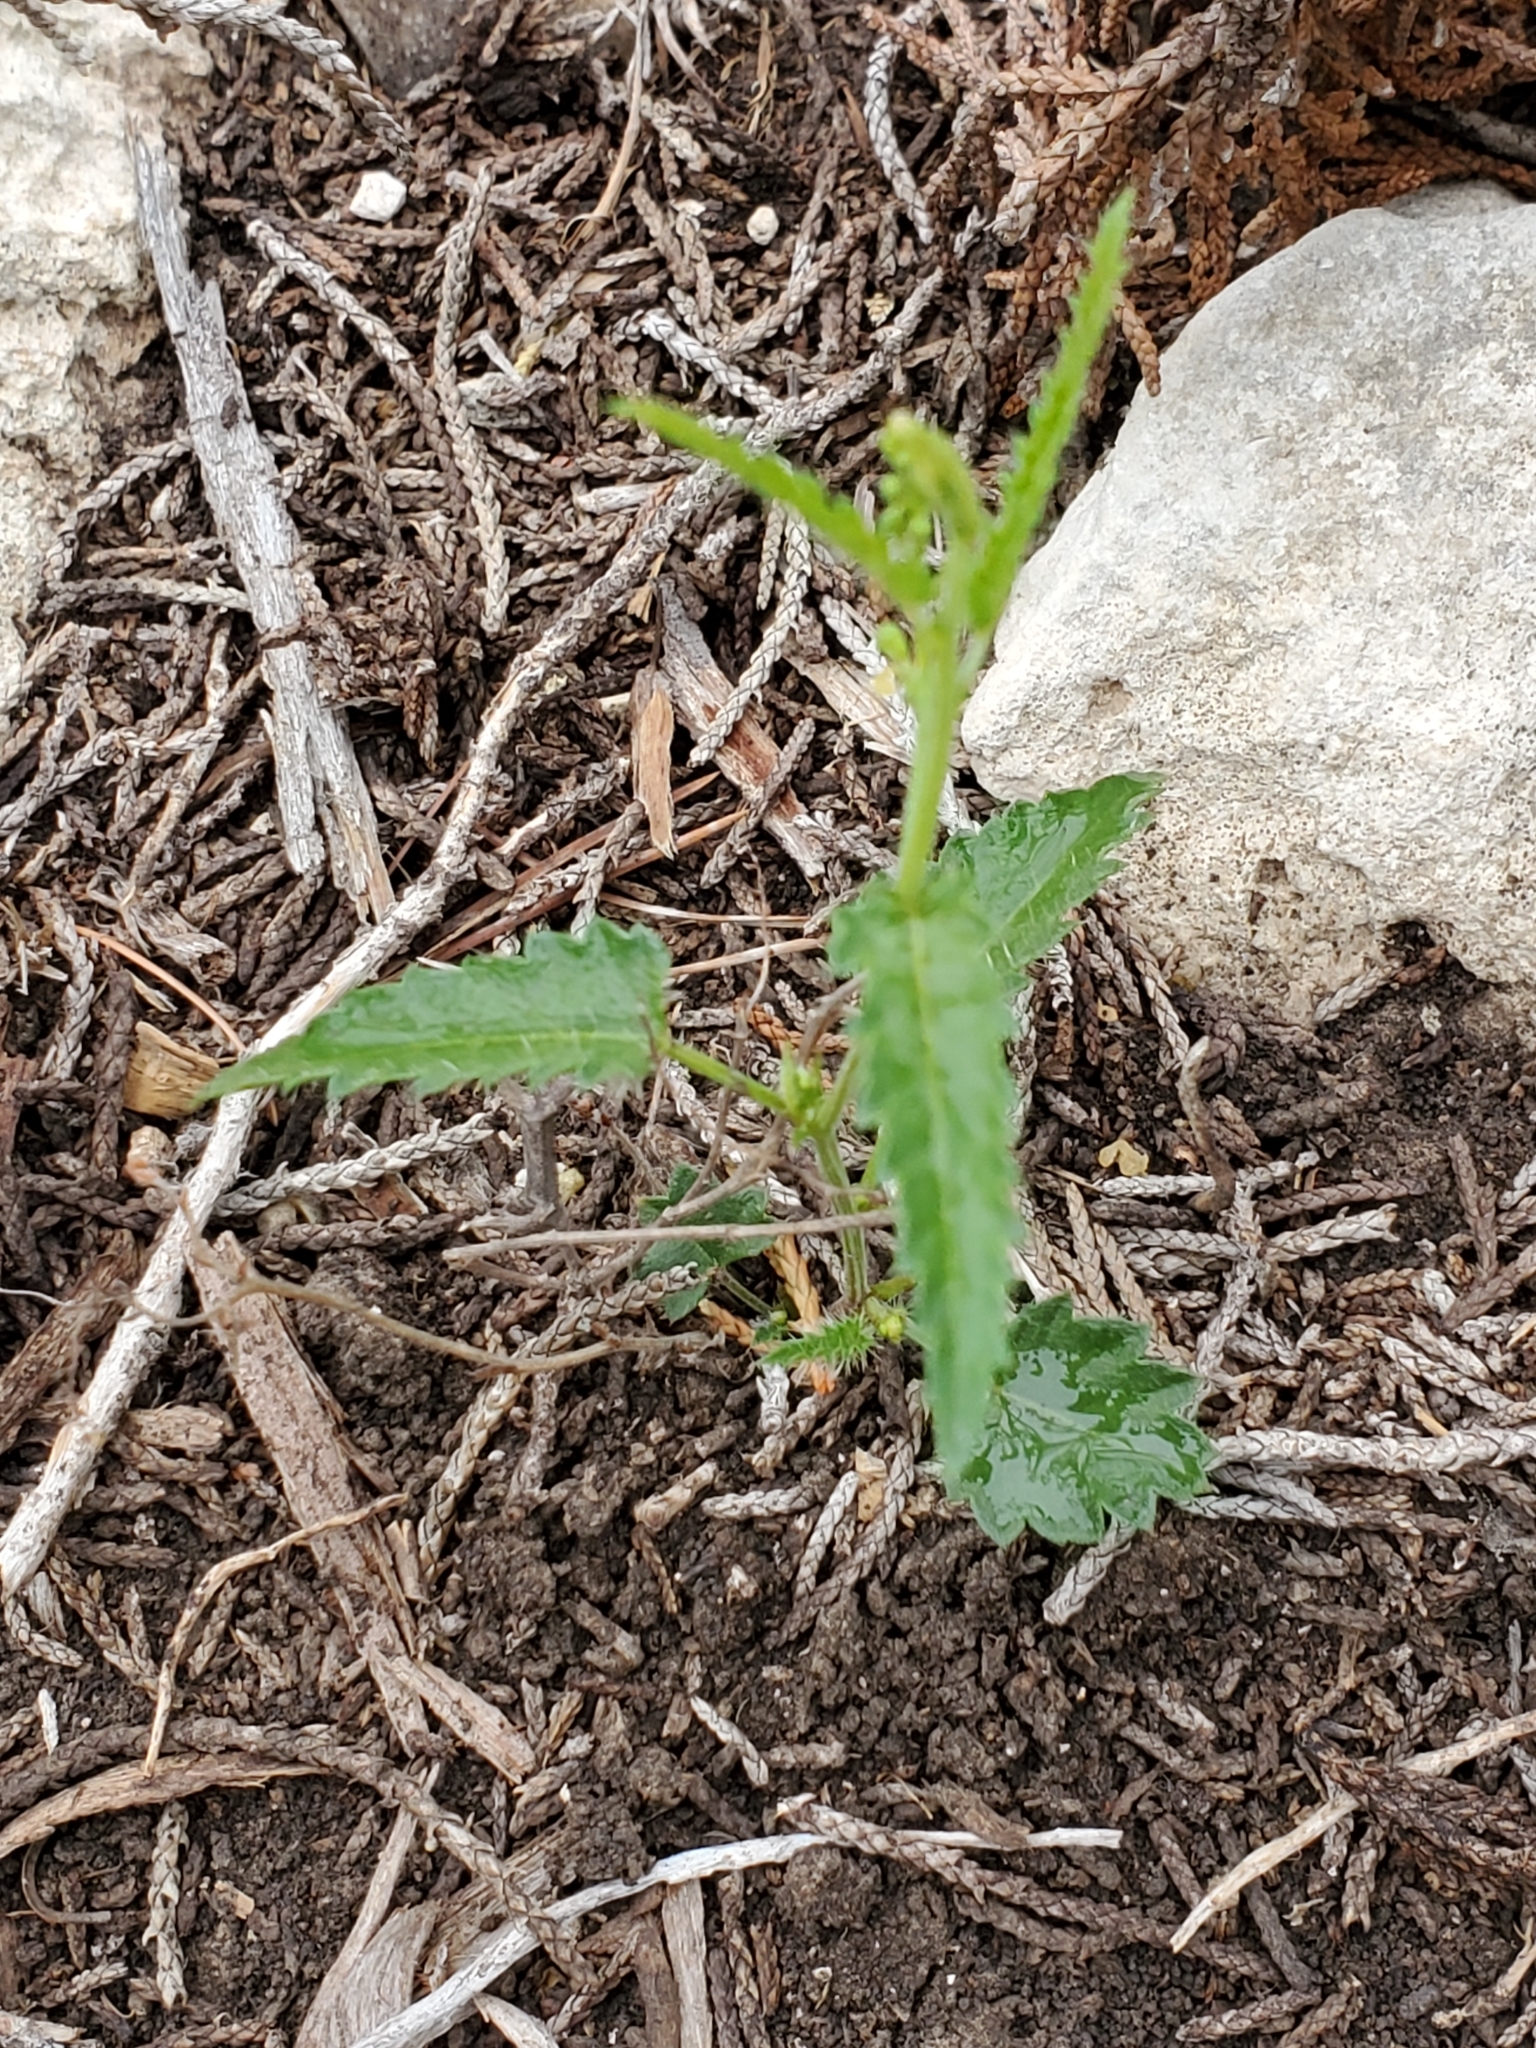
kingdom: Plantae
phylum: Tracheophyta
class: Magnoliopsida
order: Malpighiales
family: Euphorbiaceae
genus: Tragia
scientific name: Tragia ramosa
